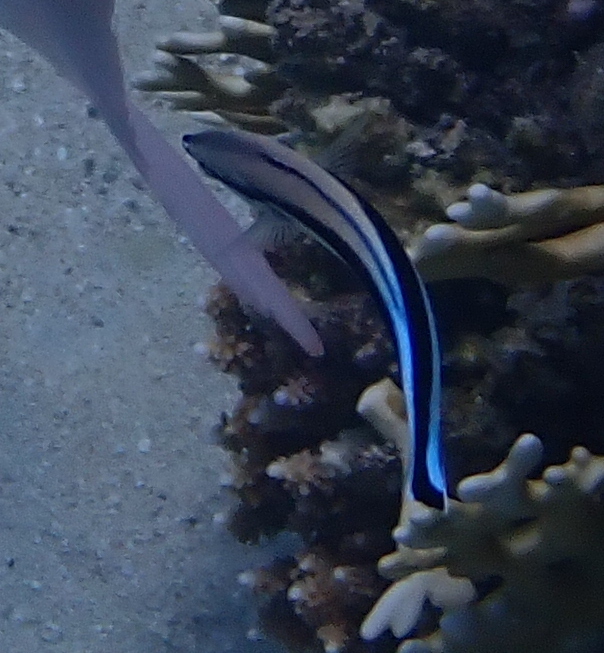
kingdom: Animalia
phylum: Chordata
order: Perciformes
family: Labridae
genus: Labroides
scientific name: Labroides dimidiatus
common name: Blue diesel wrasse
